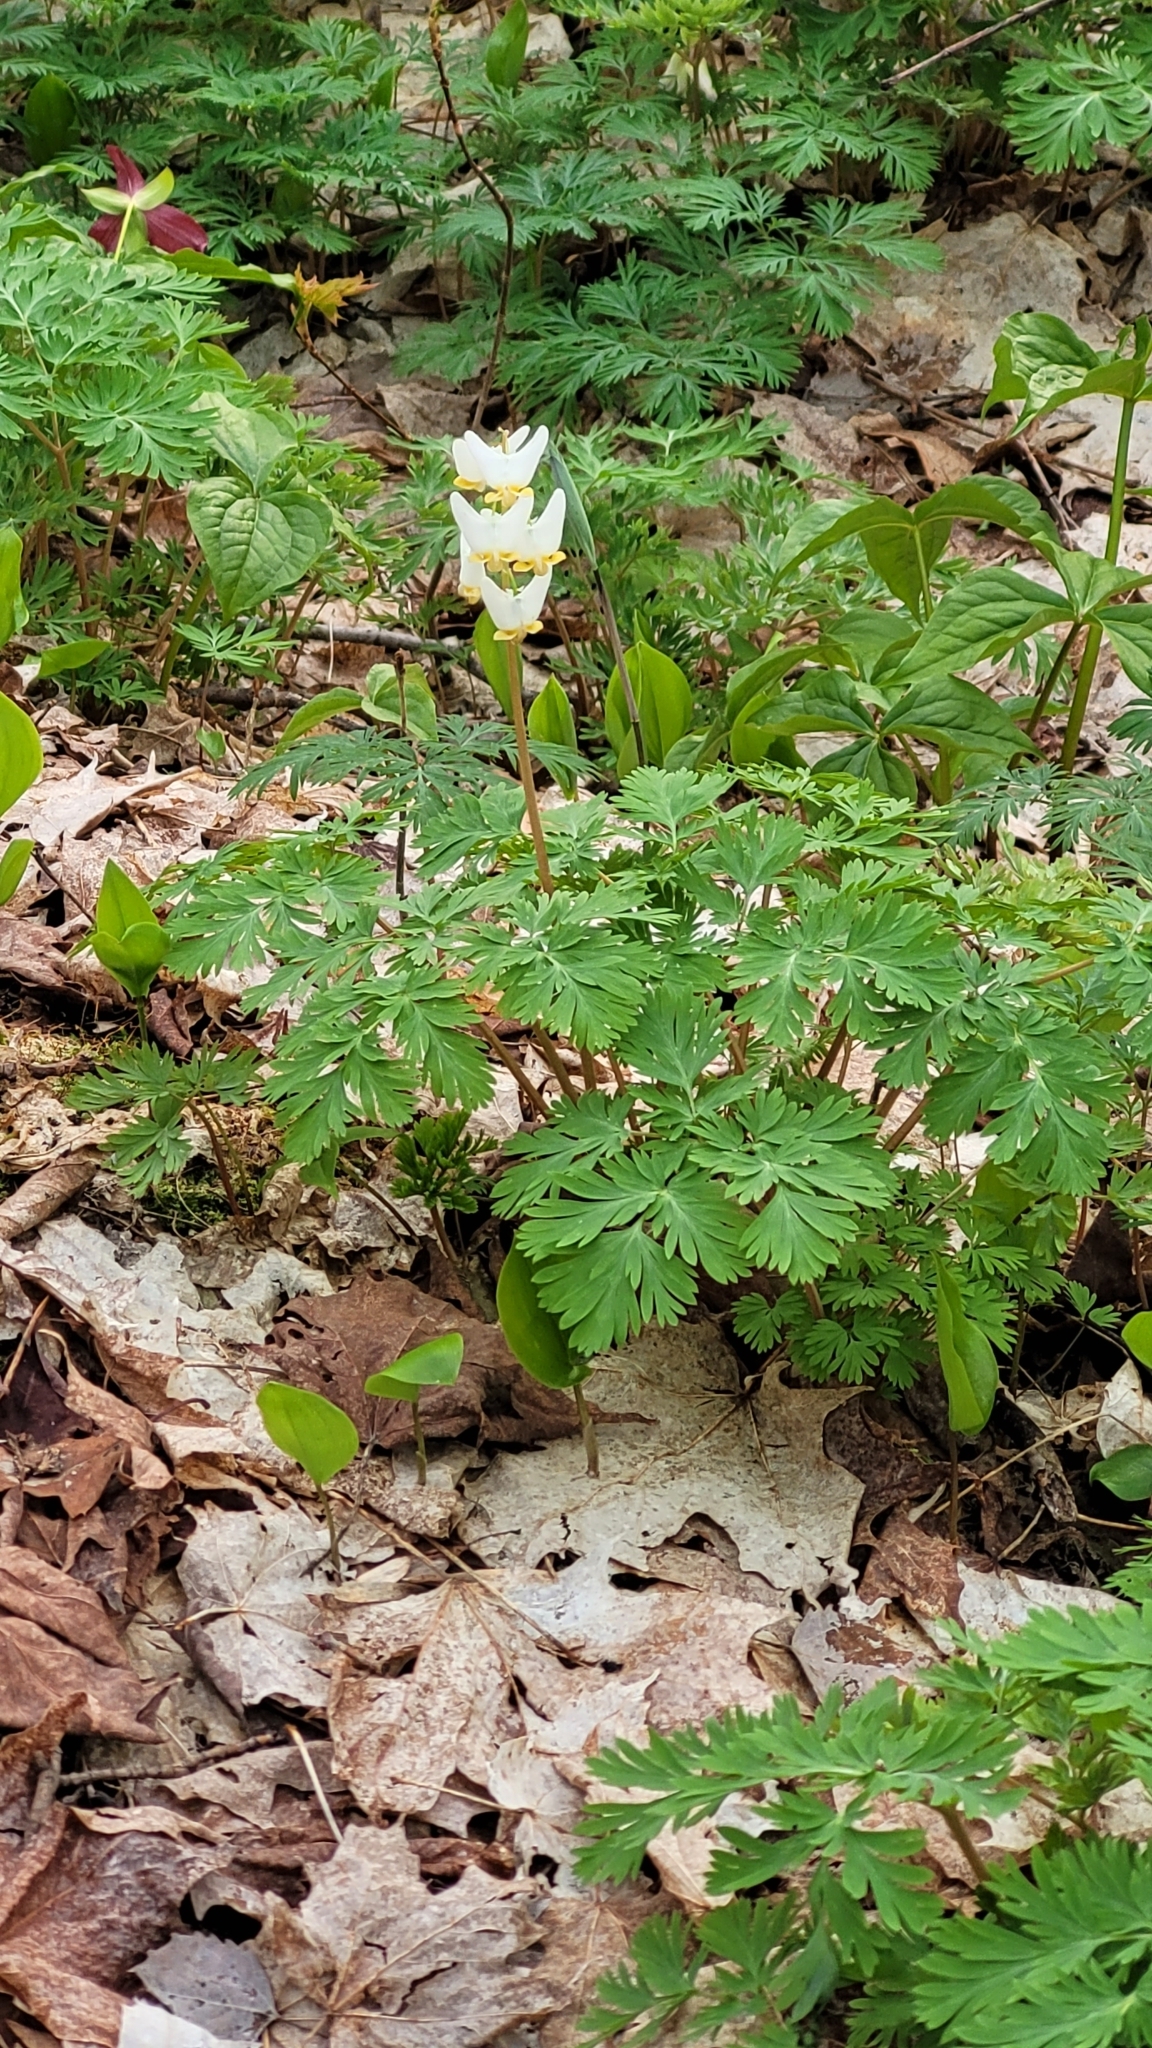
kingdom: Plantae
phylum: Tracheophyta
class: Magnoliopsida
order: Ranunculales
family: Papaveraceae
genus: Dicentra
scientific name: Dicentra cucullaria
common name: Dutchman's breeches
